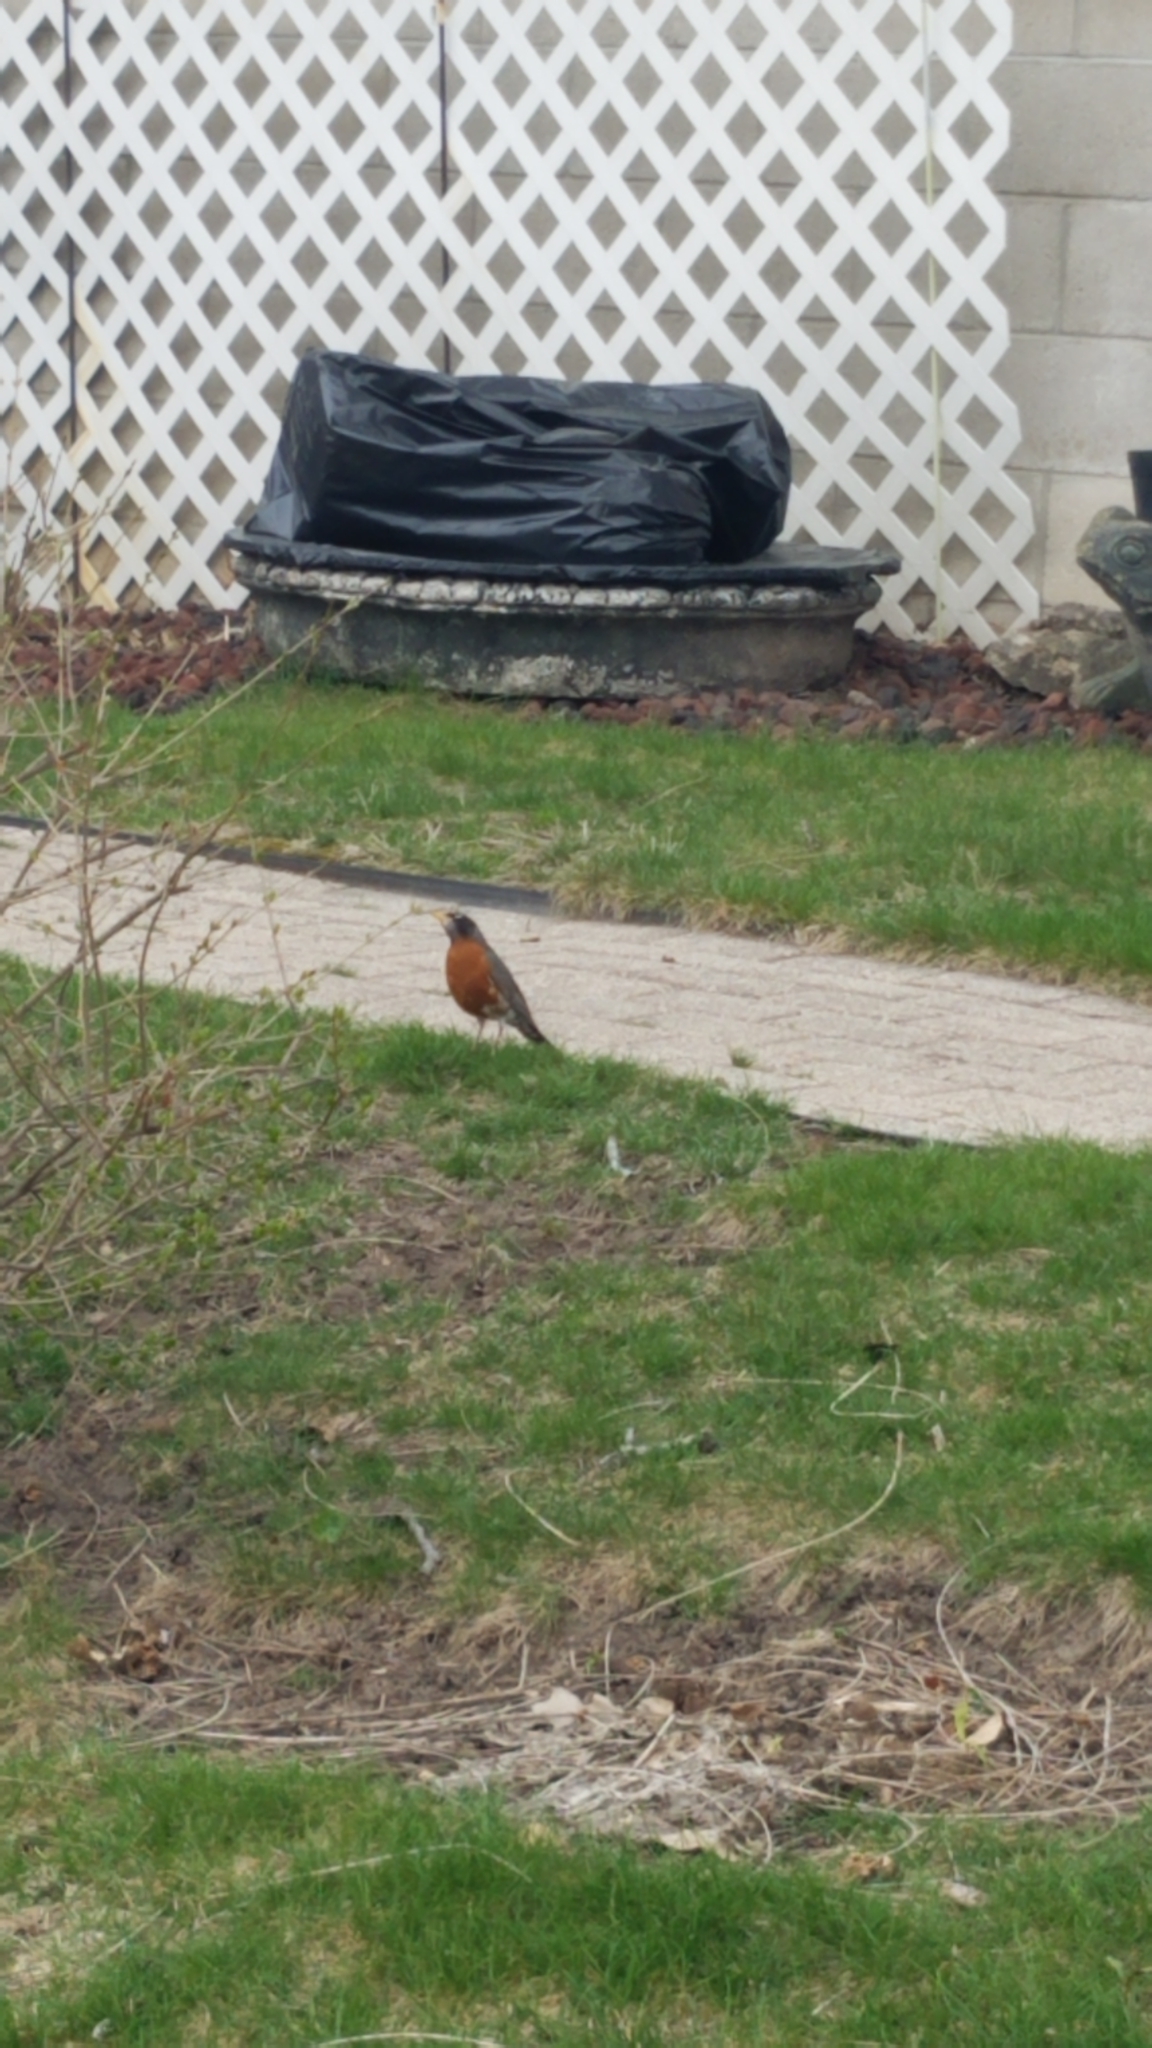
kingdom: Animalia
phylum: Chordata
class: Aves
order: Passeriformes
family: Turdidae
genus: Turdus
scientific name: Turdus migratorius
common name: American robin
